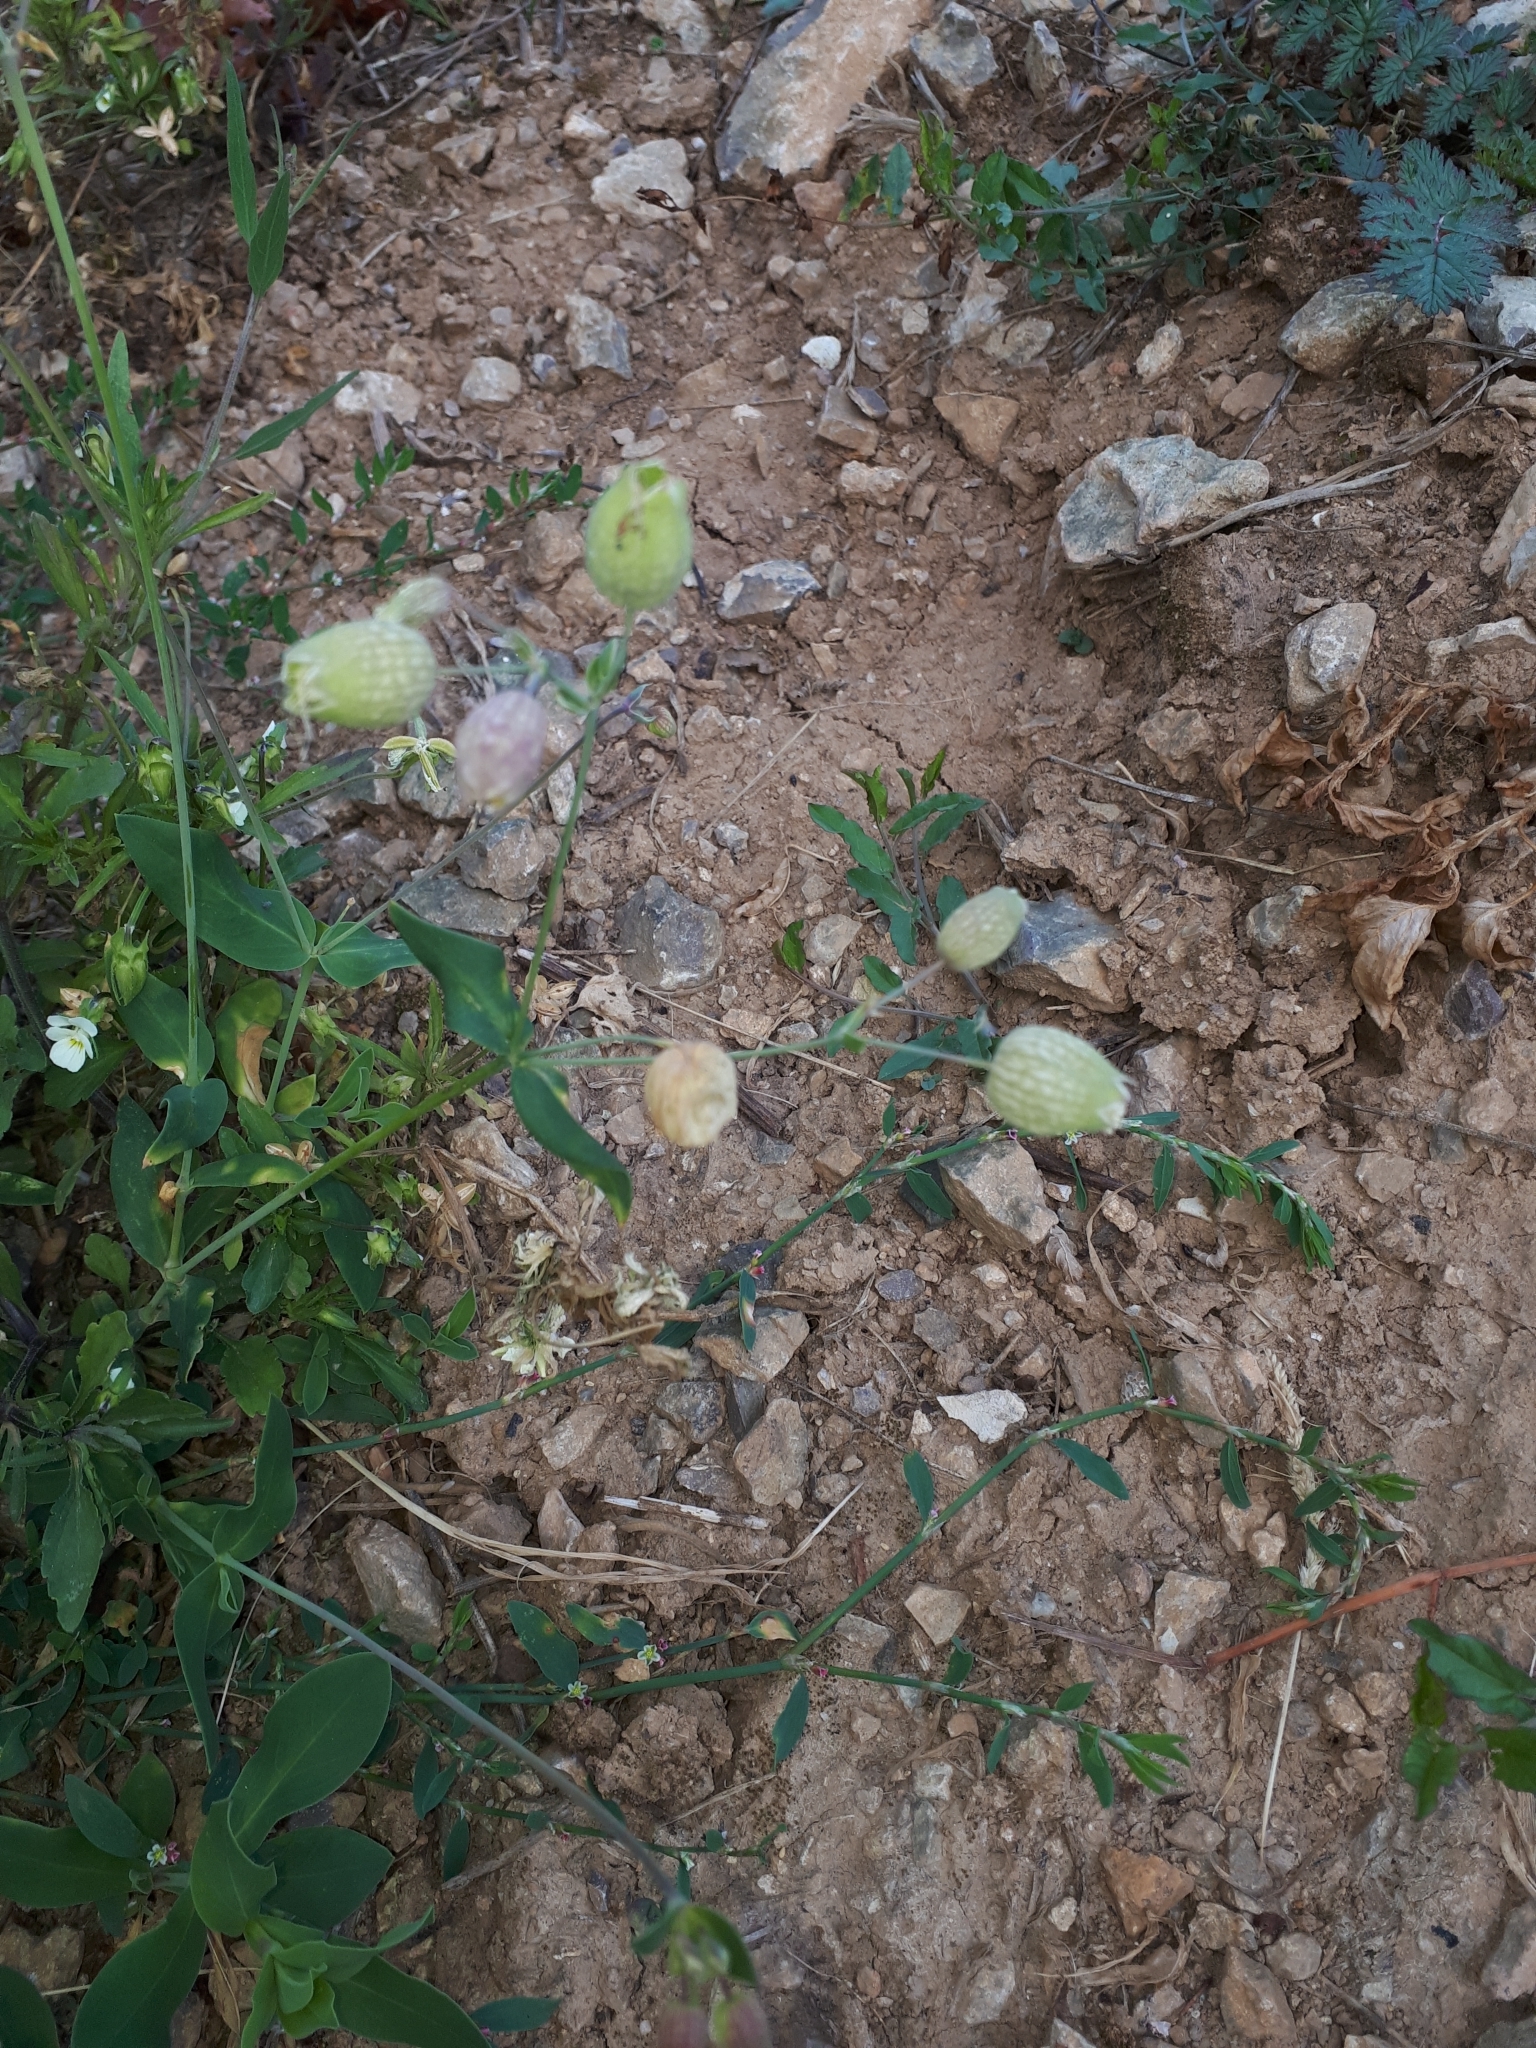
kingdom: Plantae
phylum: Tracheophyta
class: Magnoliopsida
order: Caryophyllales
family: Caryophyllaceae
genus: Silene
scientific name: Silene vulgaris
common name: Bladder campion
